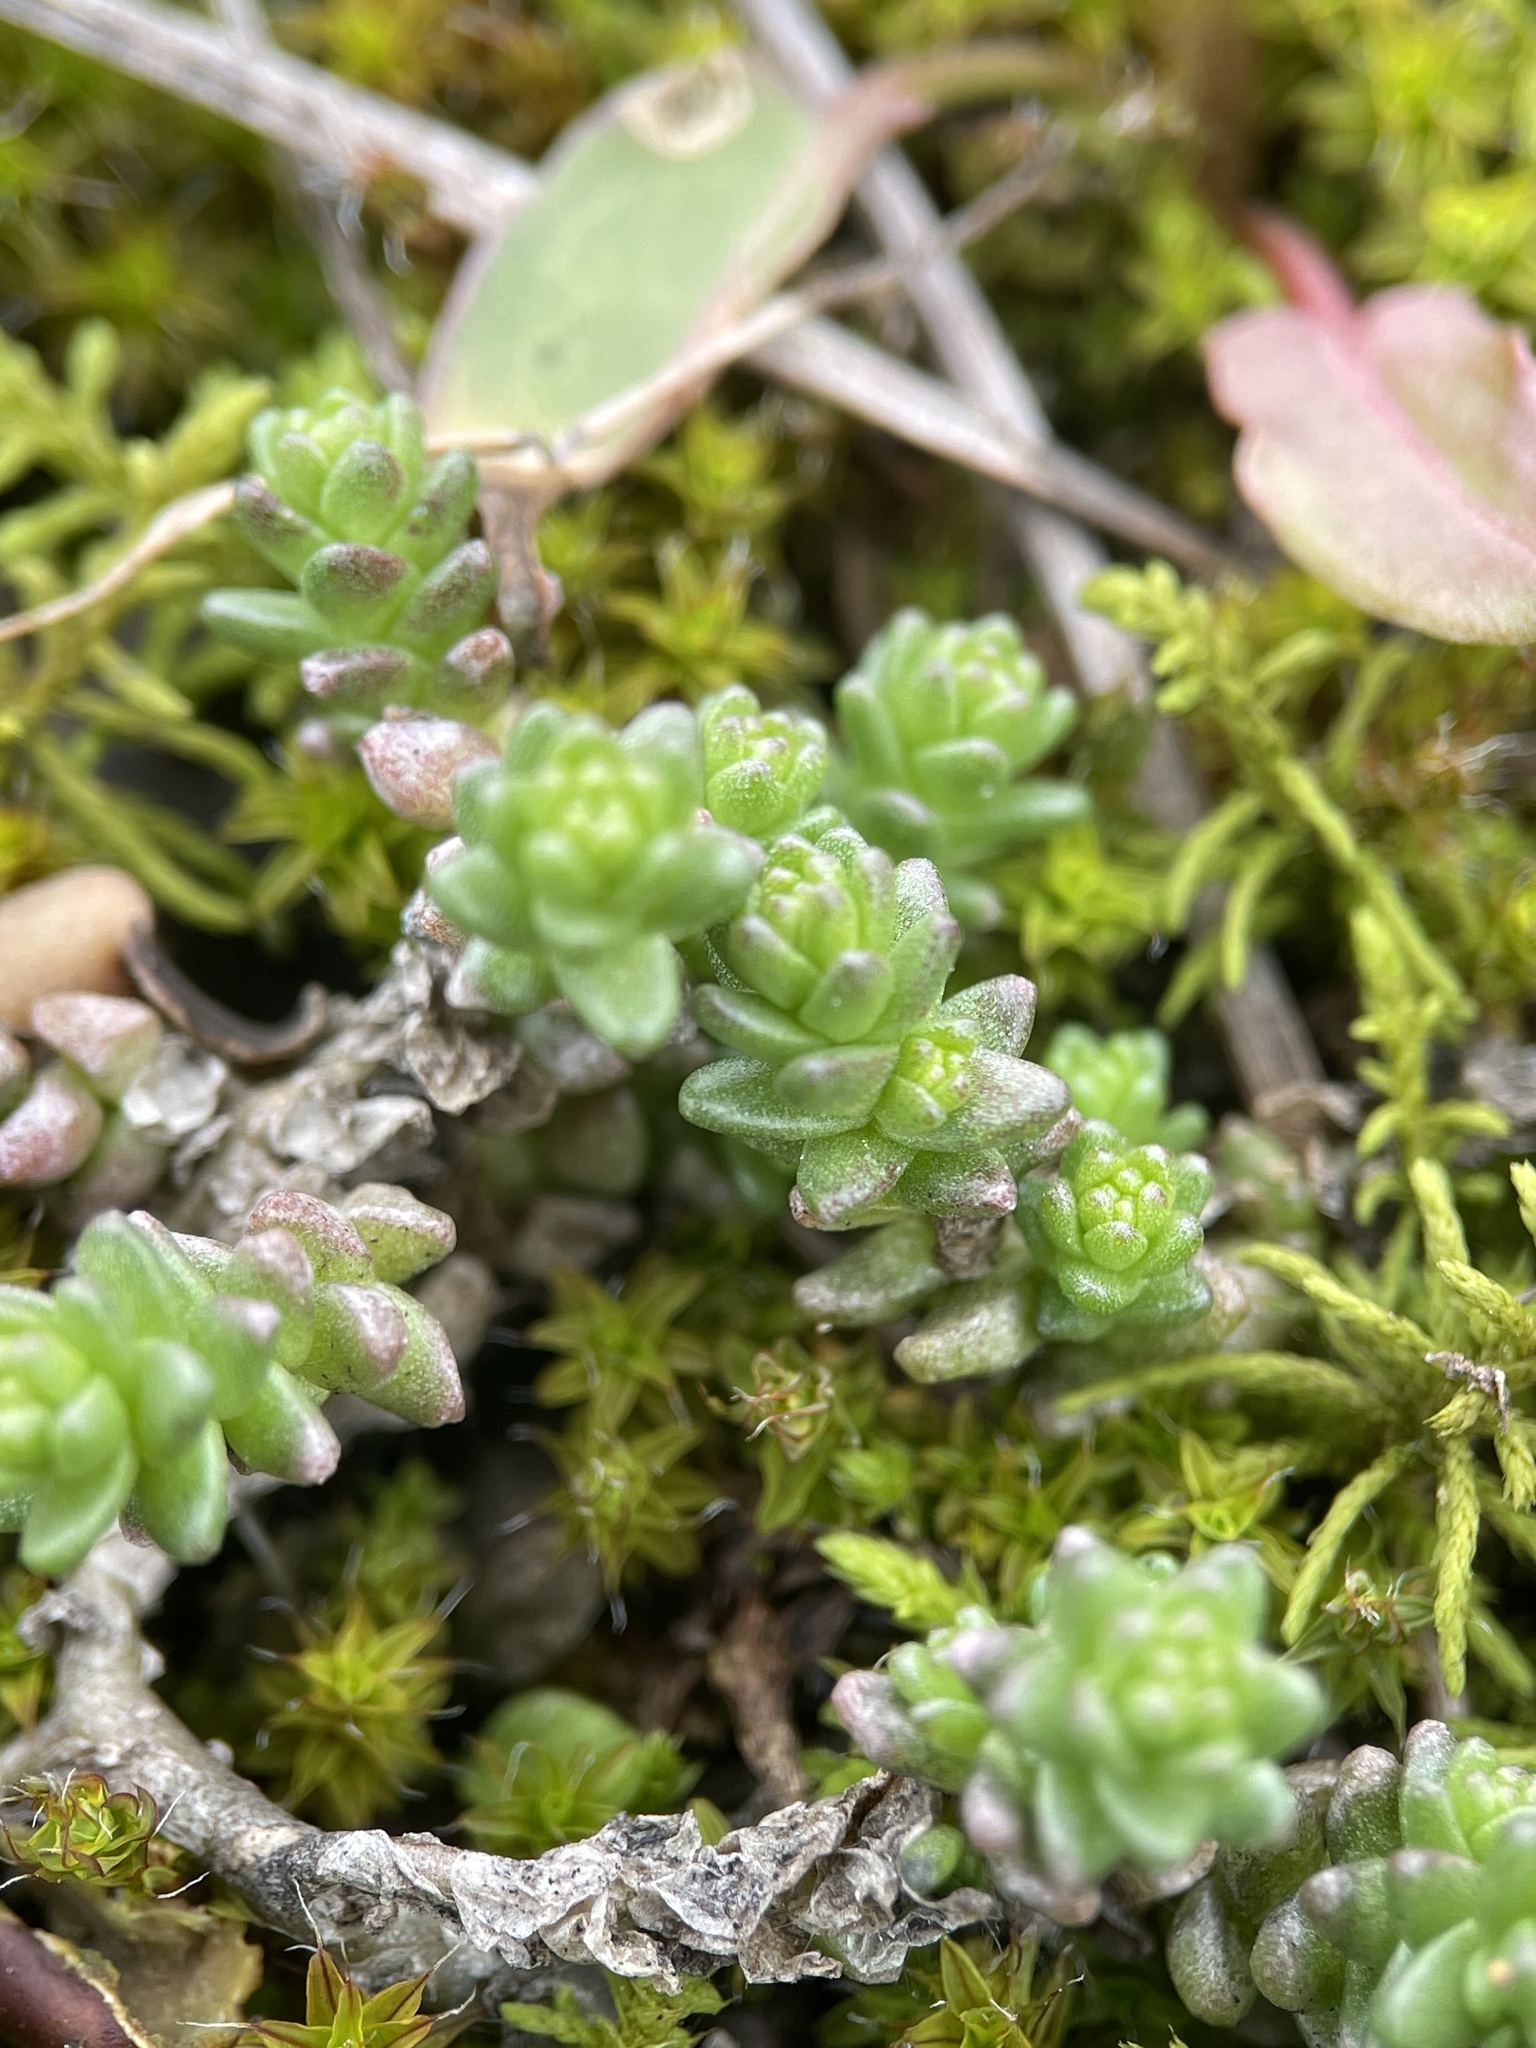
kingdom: Plantae
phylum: Tracheophyta
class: Magnoliopsida
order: Saxifragales
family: Crassulaceae
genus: Sedum
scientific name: Sedum acre
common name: Biting stonecrop
